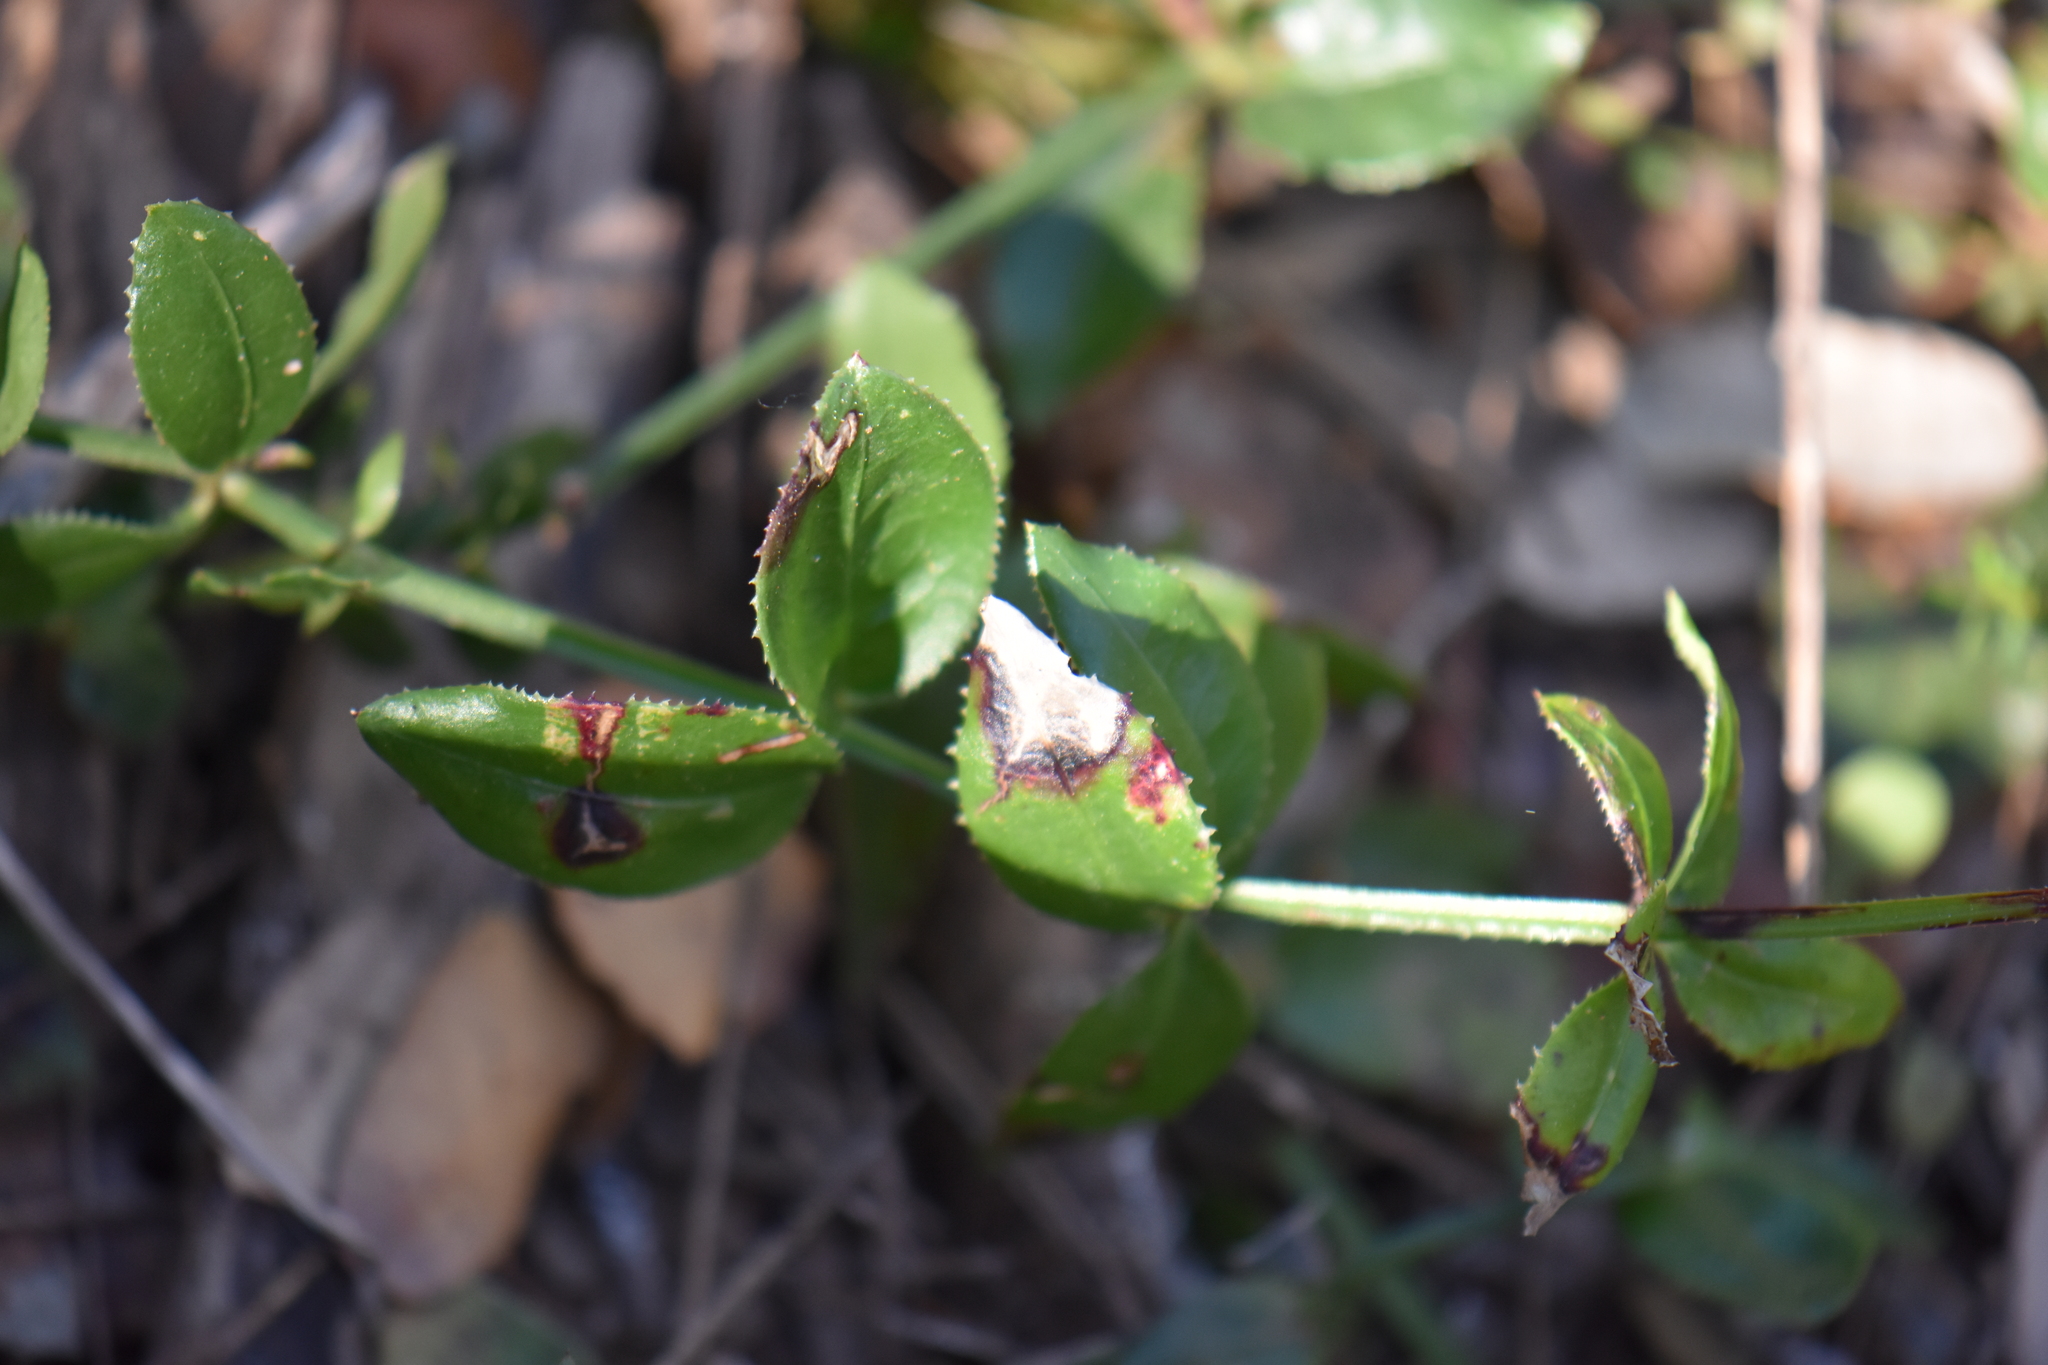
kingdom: Plantae
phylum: Tracheophyta
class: Magnoliopsida
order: Gentianales
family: Rubiaceae
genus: Rubia
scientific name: Rubia peregrina
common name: Wild madder
